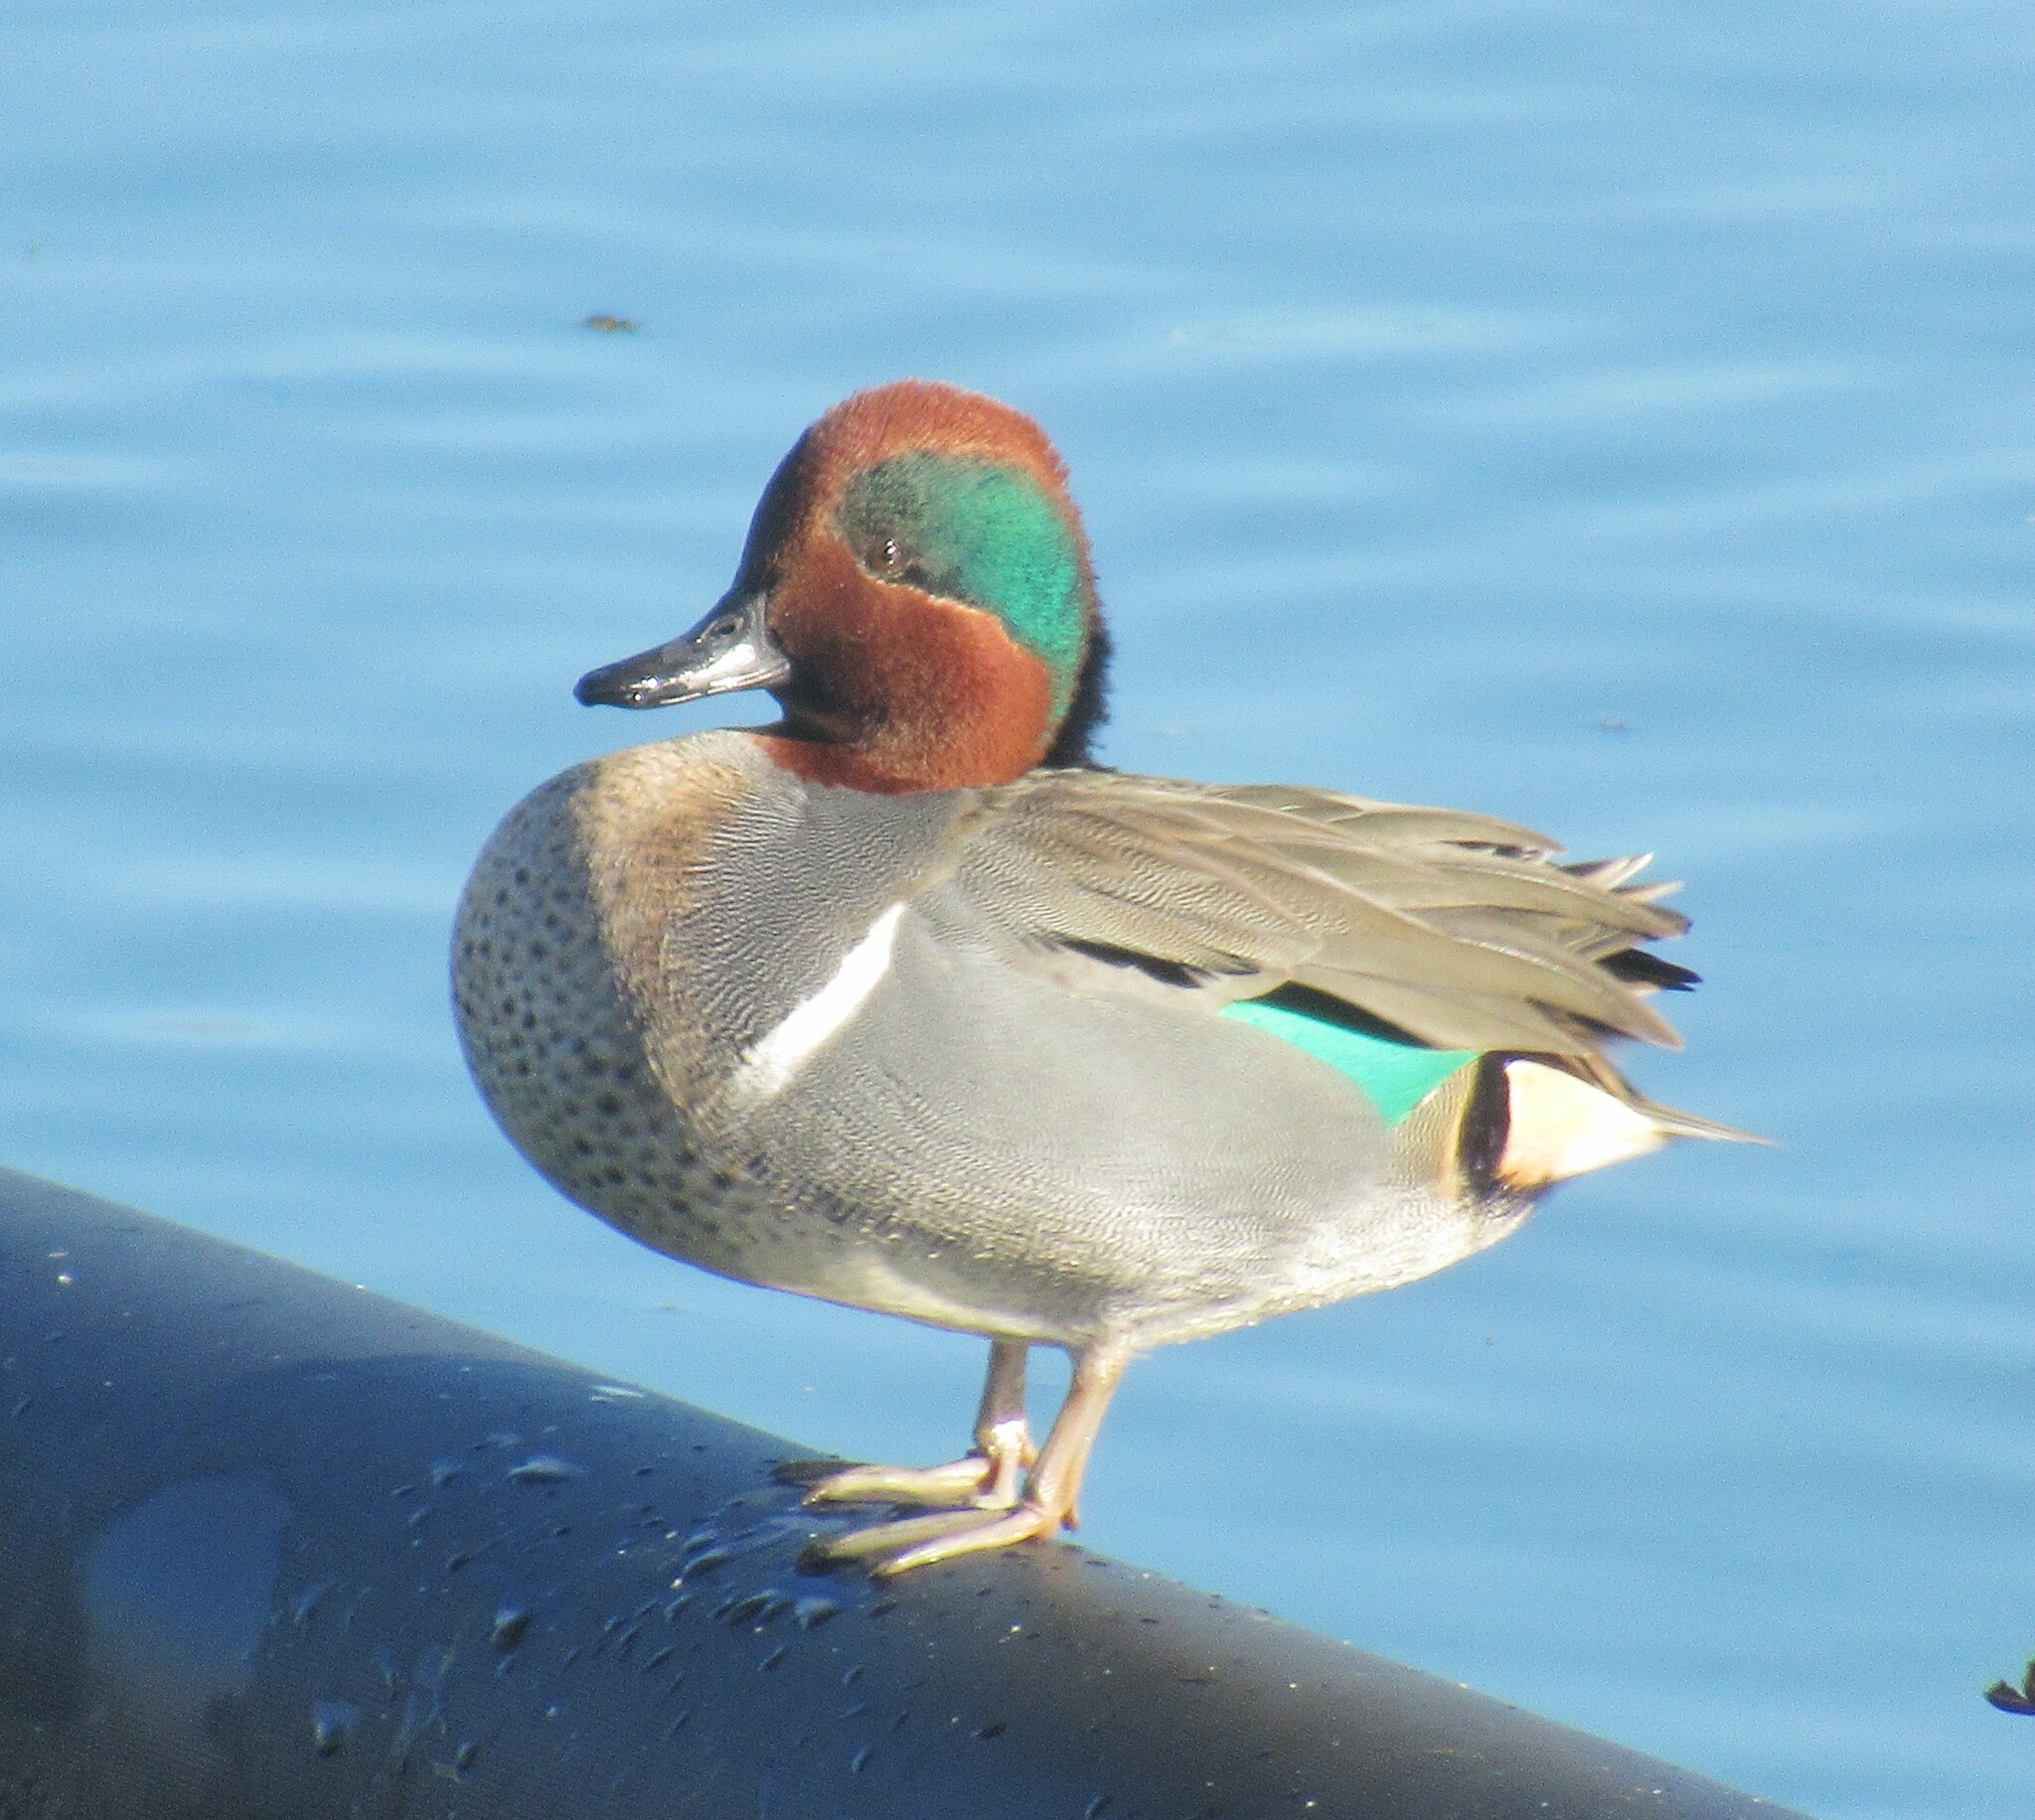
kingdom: Animalia
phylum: Chordata
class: Aves
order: Anseriformes
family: Anatidae
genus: Anas
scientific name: Anas crecca
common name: Eurasian teal
